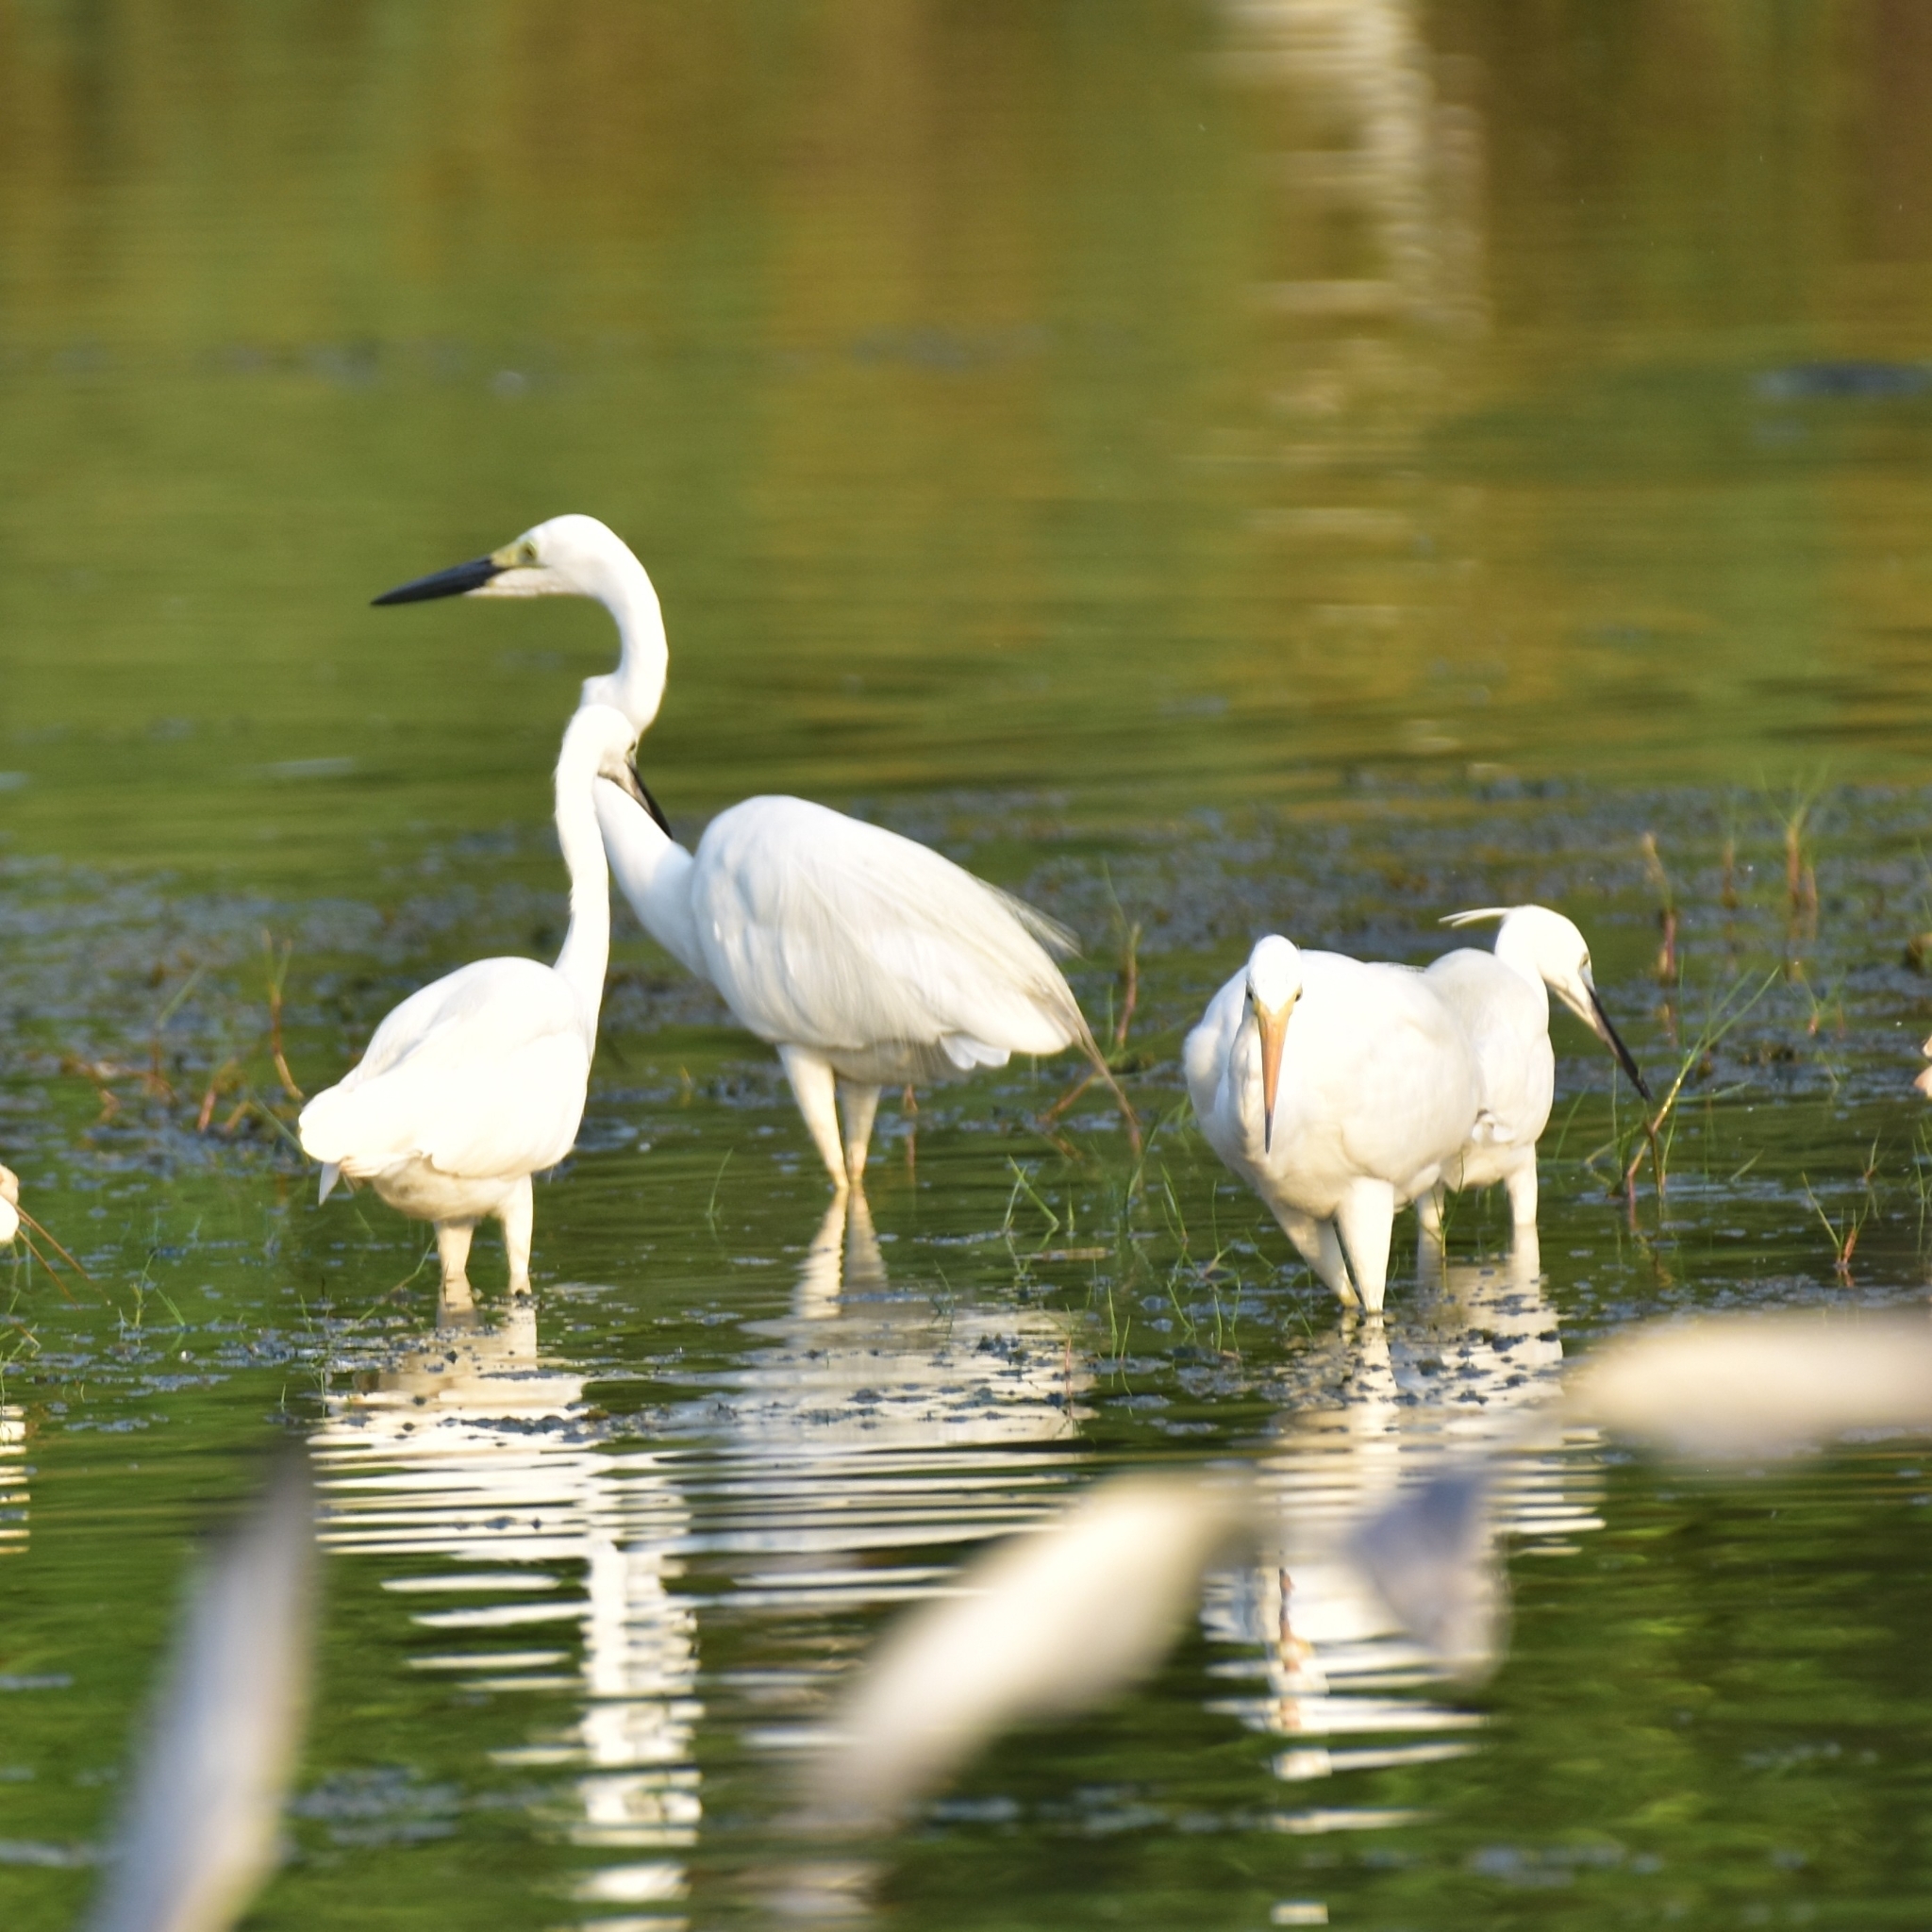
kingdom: Animalia
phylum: Chordata
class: Aves
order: Pelecaniformes
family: Ardeidae
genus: Egretta
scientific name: Egretta garzetta
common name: Little egret
